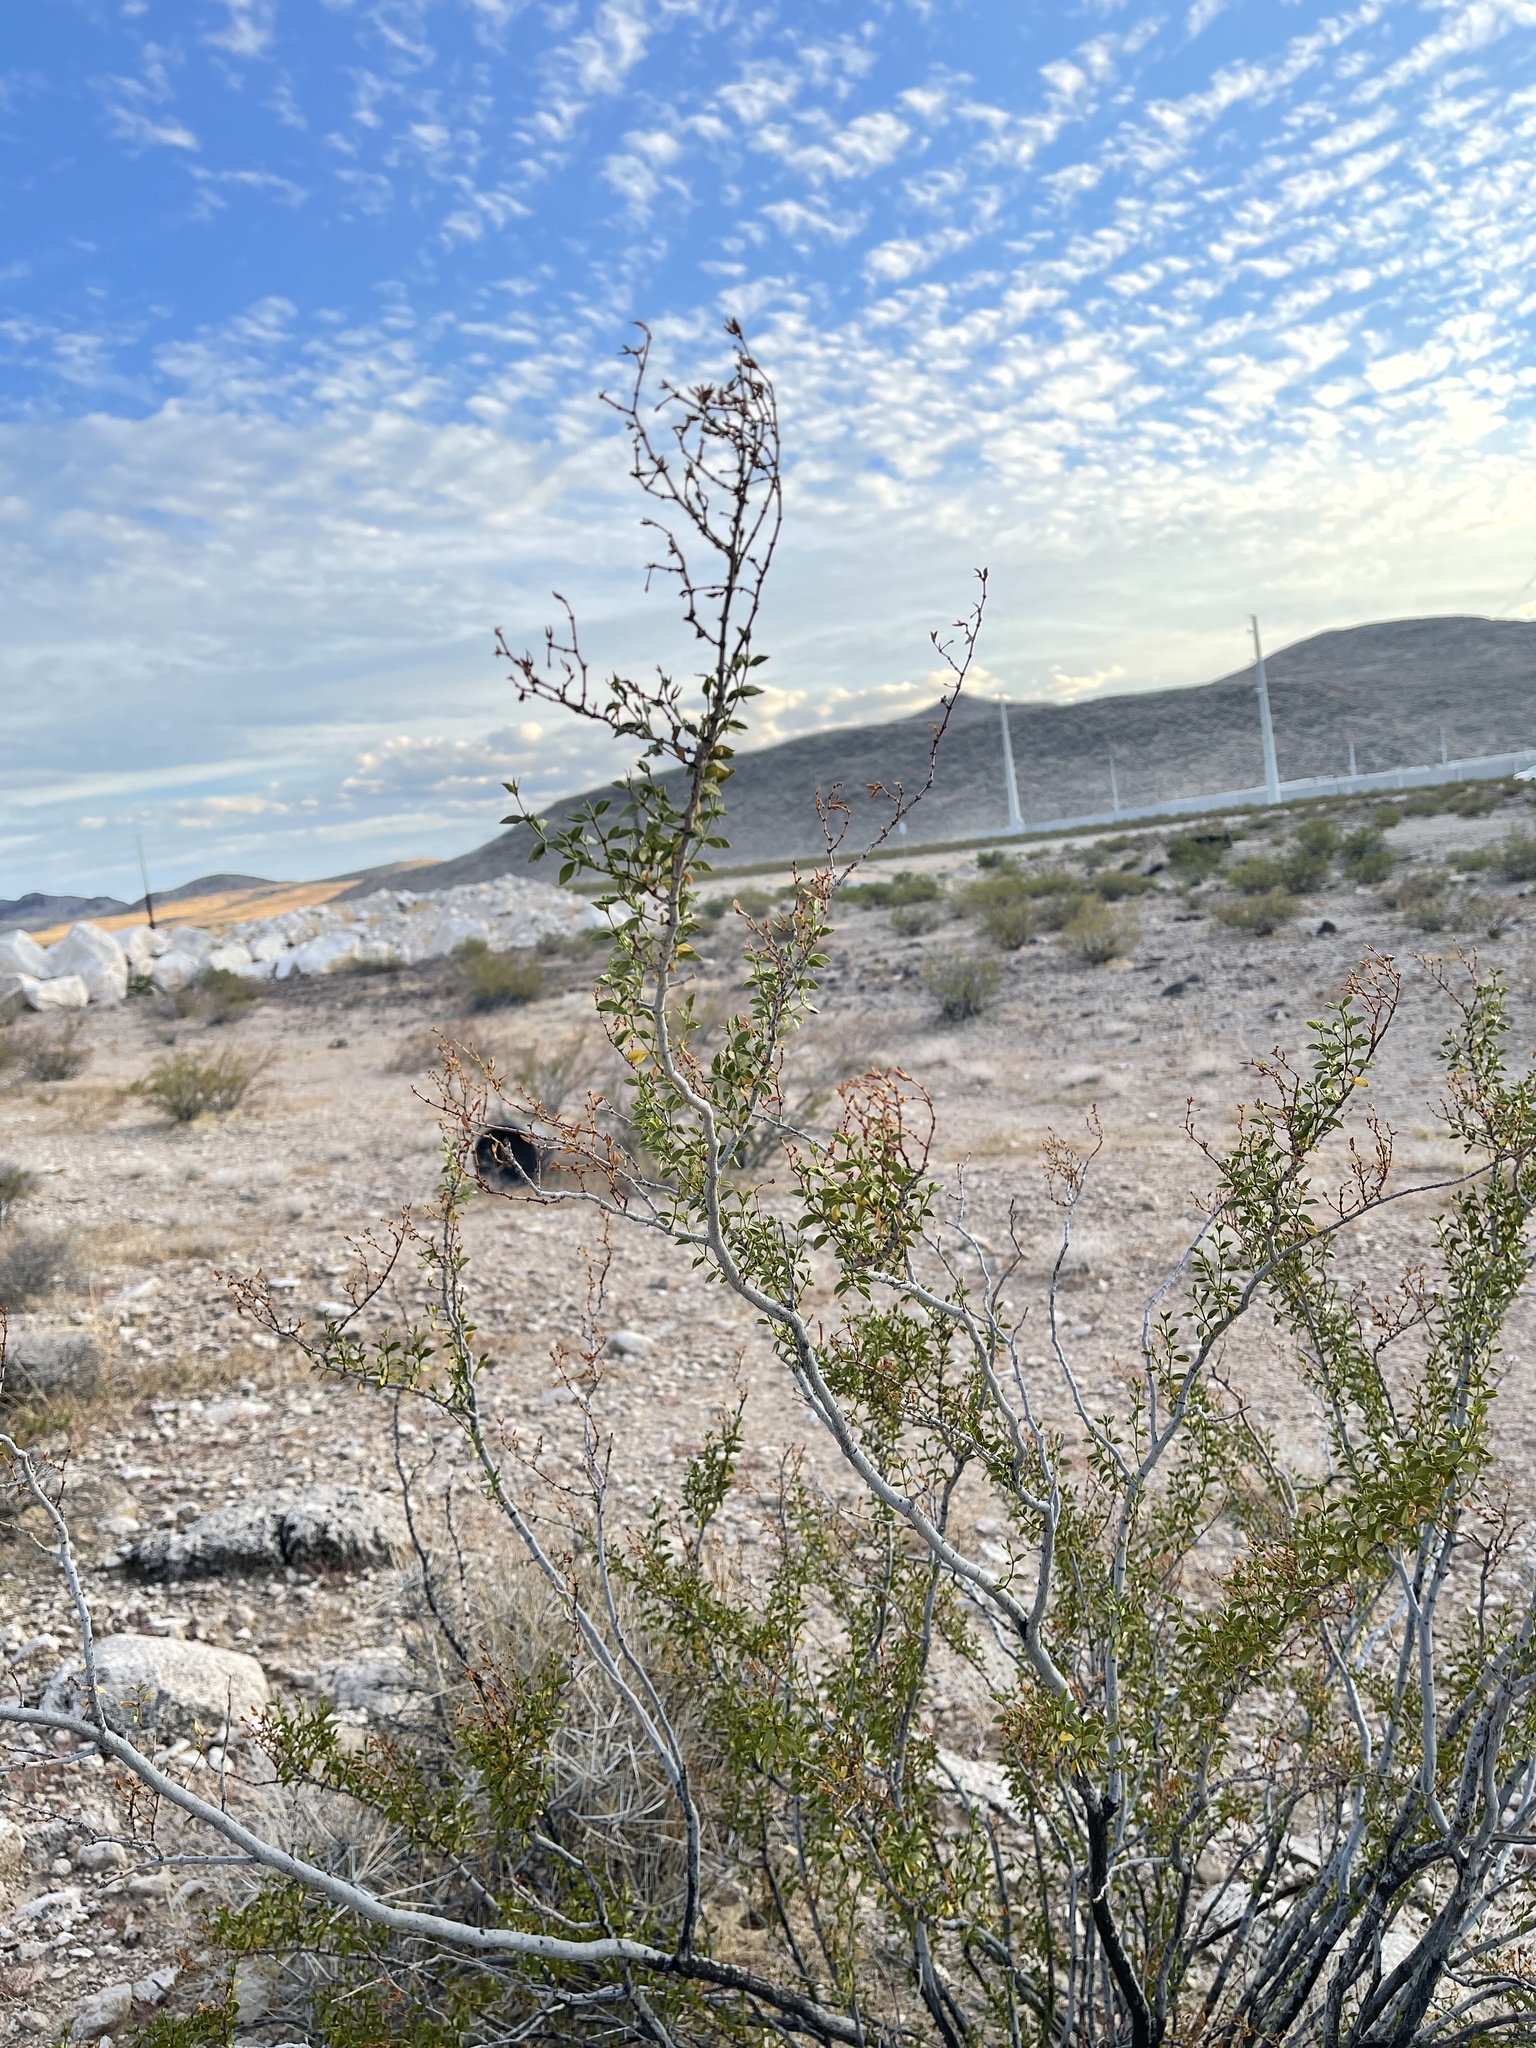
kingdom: Plantae
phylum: Tracheophyta
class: Magnoliopsida
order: Zygophyllales
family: Zygophyllaceae
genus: Larrea
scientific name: Larrea tridentata
